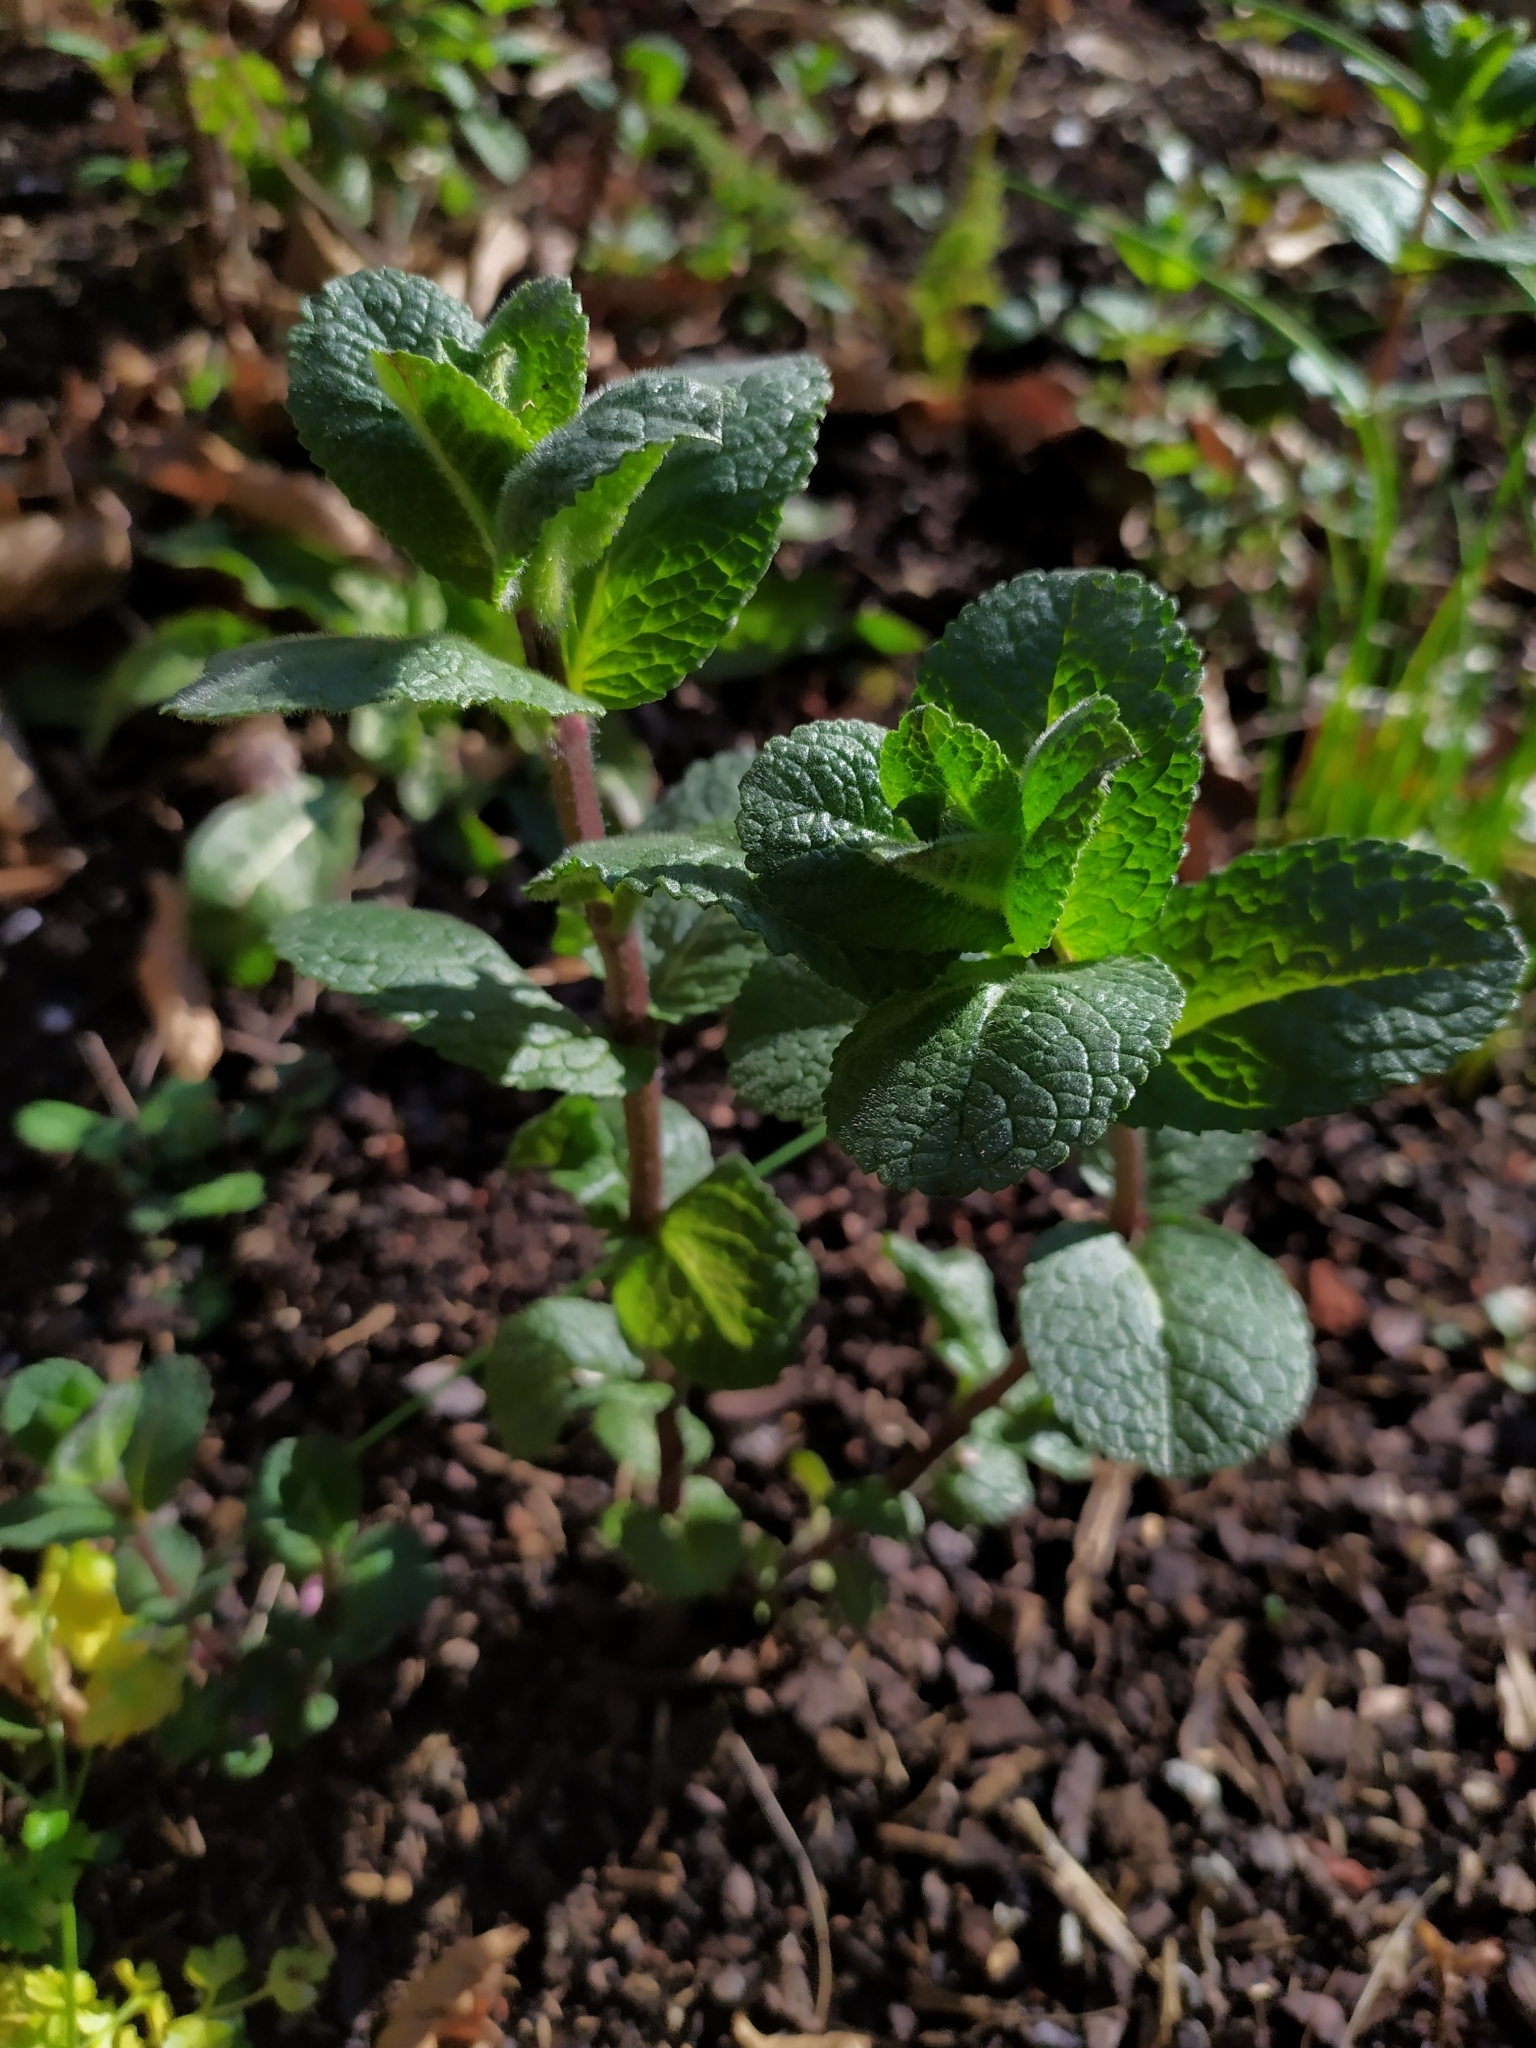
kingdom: Plantae
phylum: Tracheophyta
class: Magnoliopsida
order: Lamiales
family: Lamiaceae
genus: Mentha
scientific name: Mentha suaveolens
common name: Apple mint
